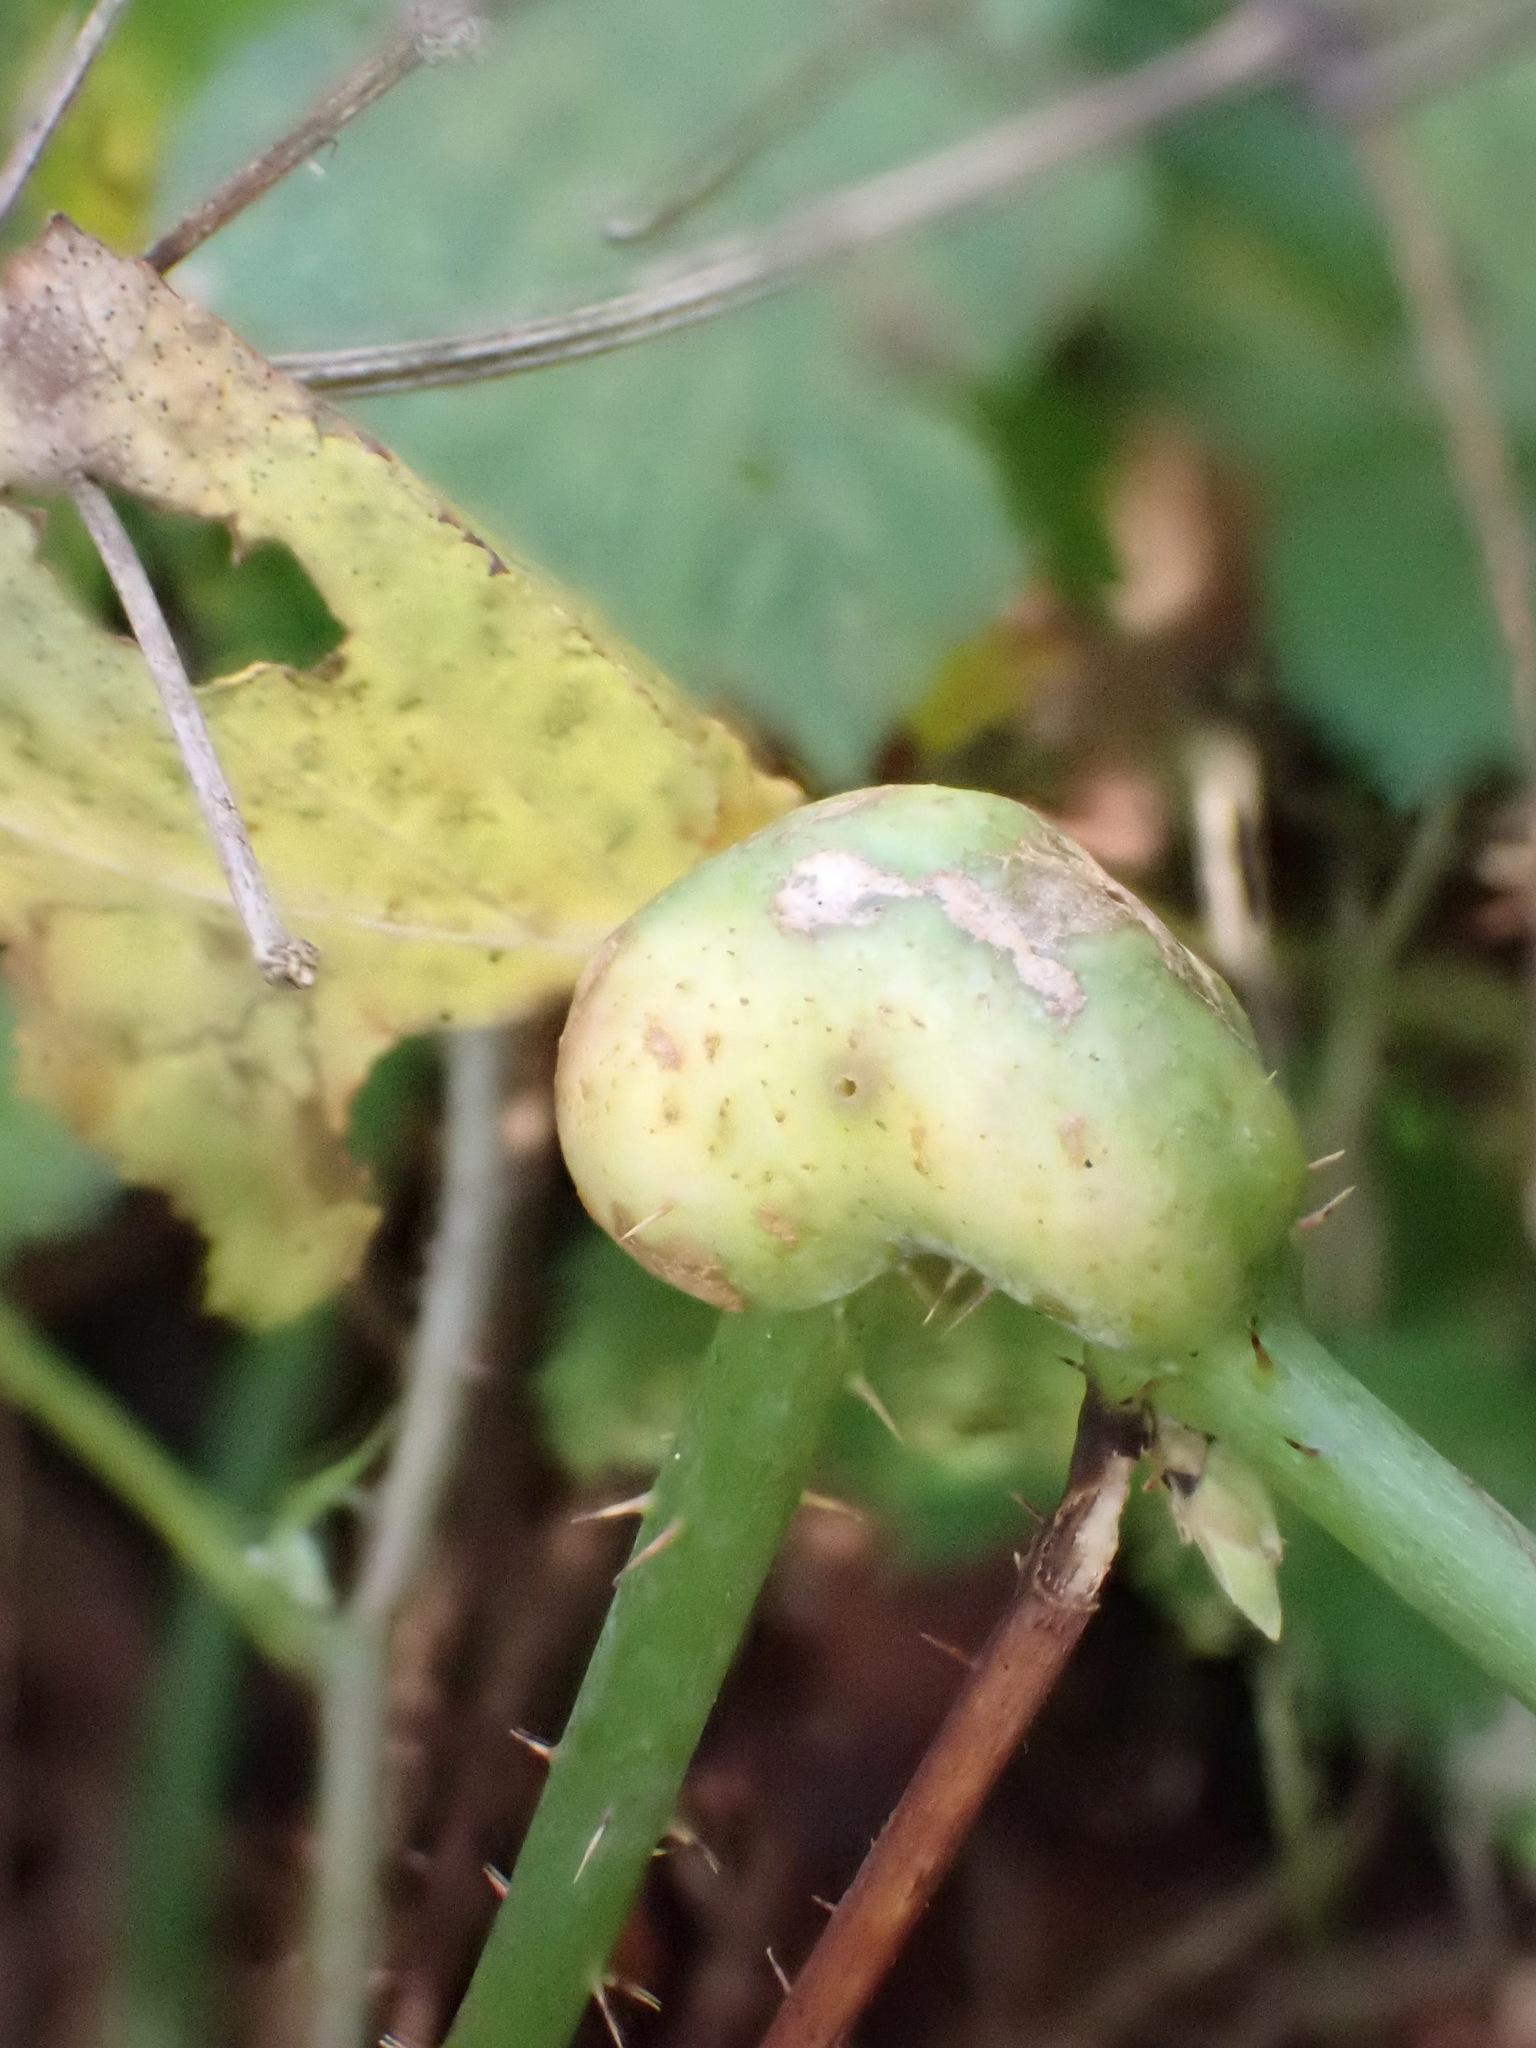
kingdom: Animalia
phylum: Arthropoda
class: Insecta
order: Hymenoptera
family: Cynipidae
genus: Diastrophus
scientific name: Diastrophus rubi
